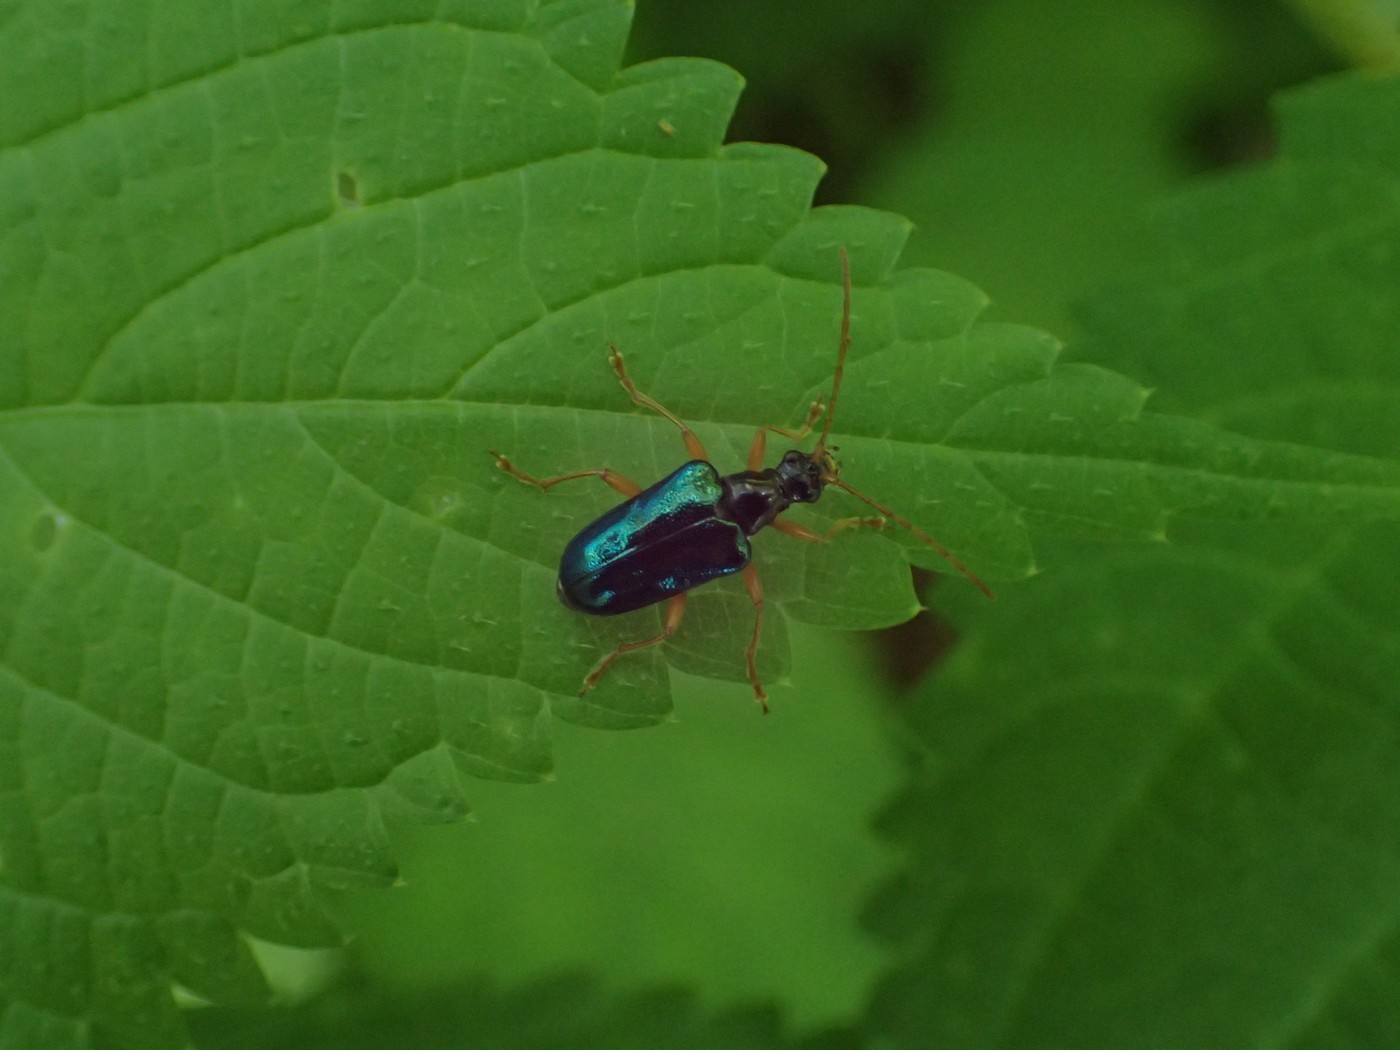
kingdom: Animalia
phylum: Arthropoda
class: Insecta
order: Coleoptera
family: Cerambycidae
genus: Gaurotes
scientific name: Gaurotes cyanipennis
